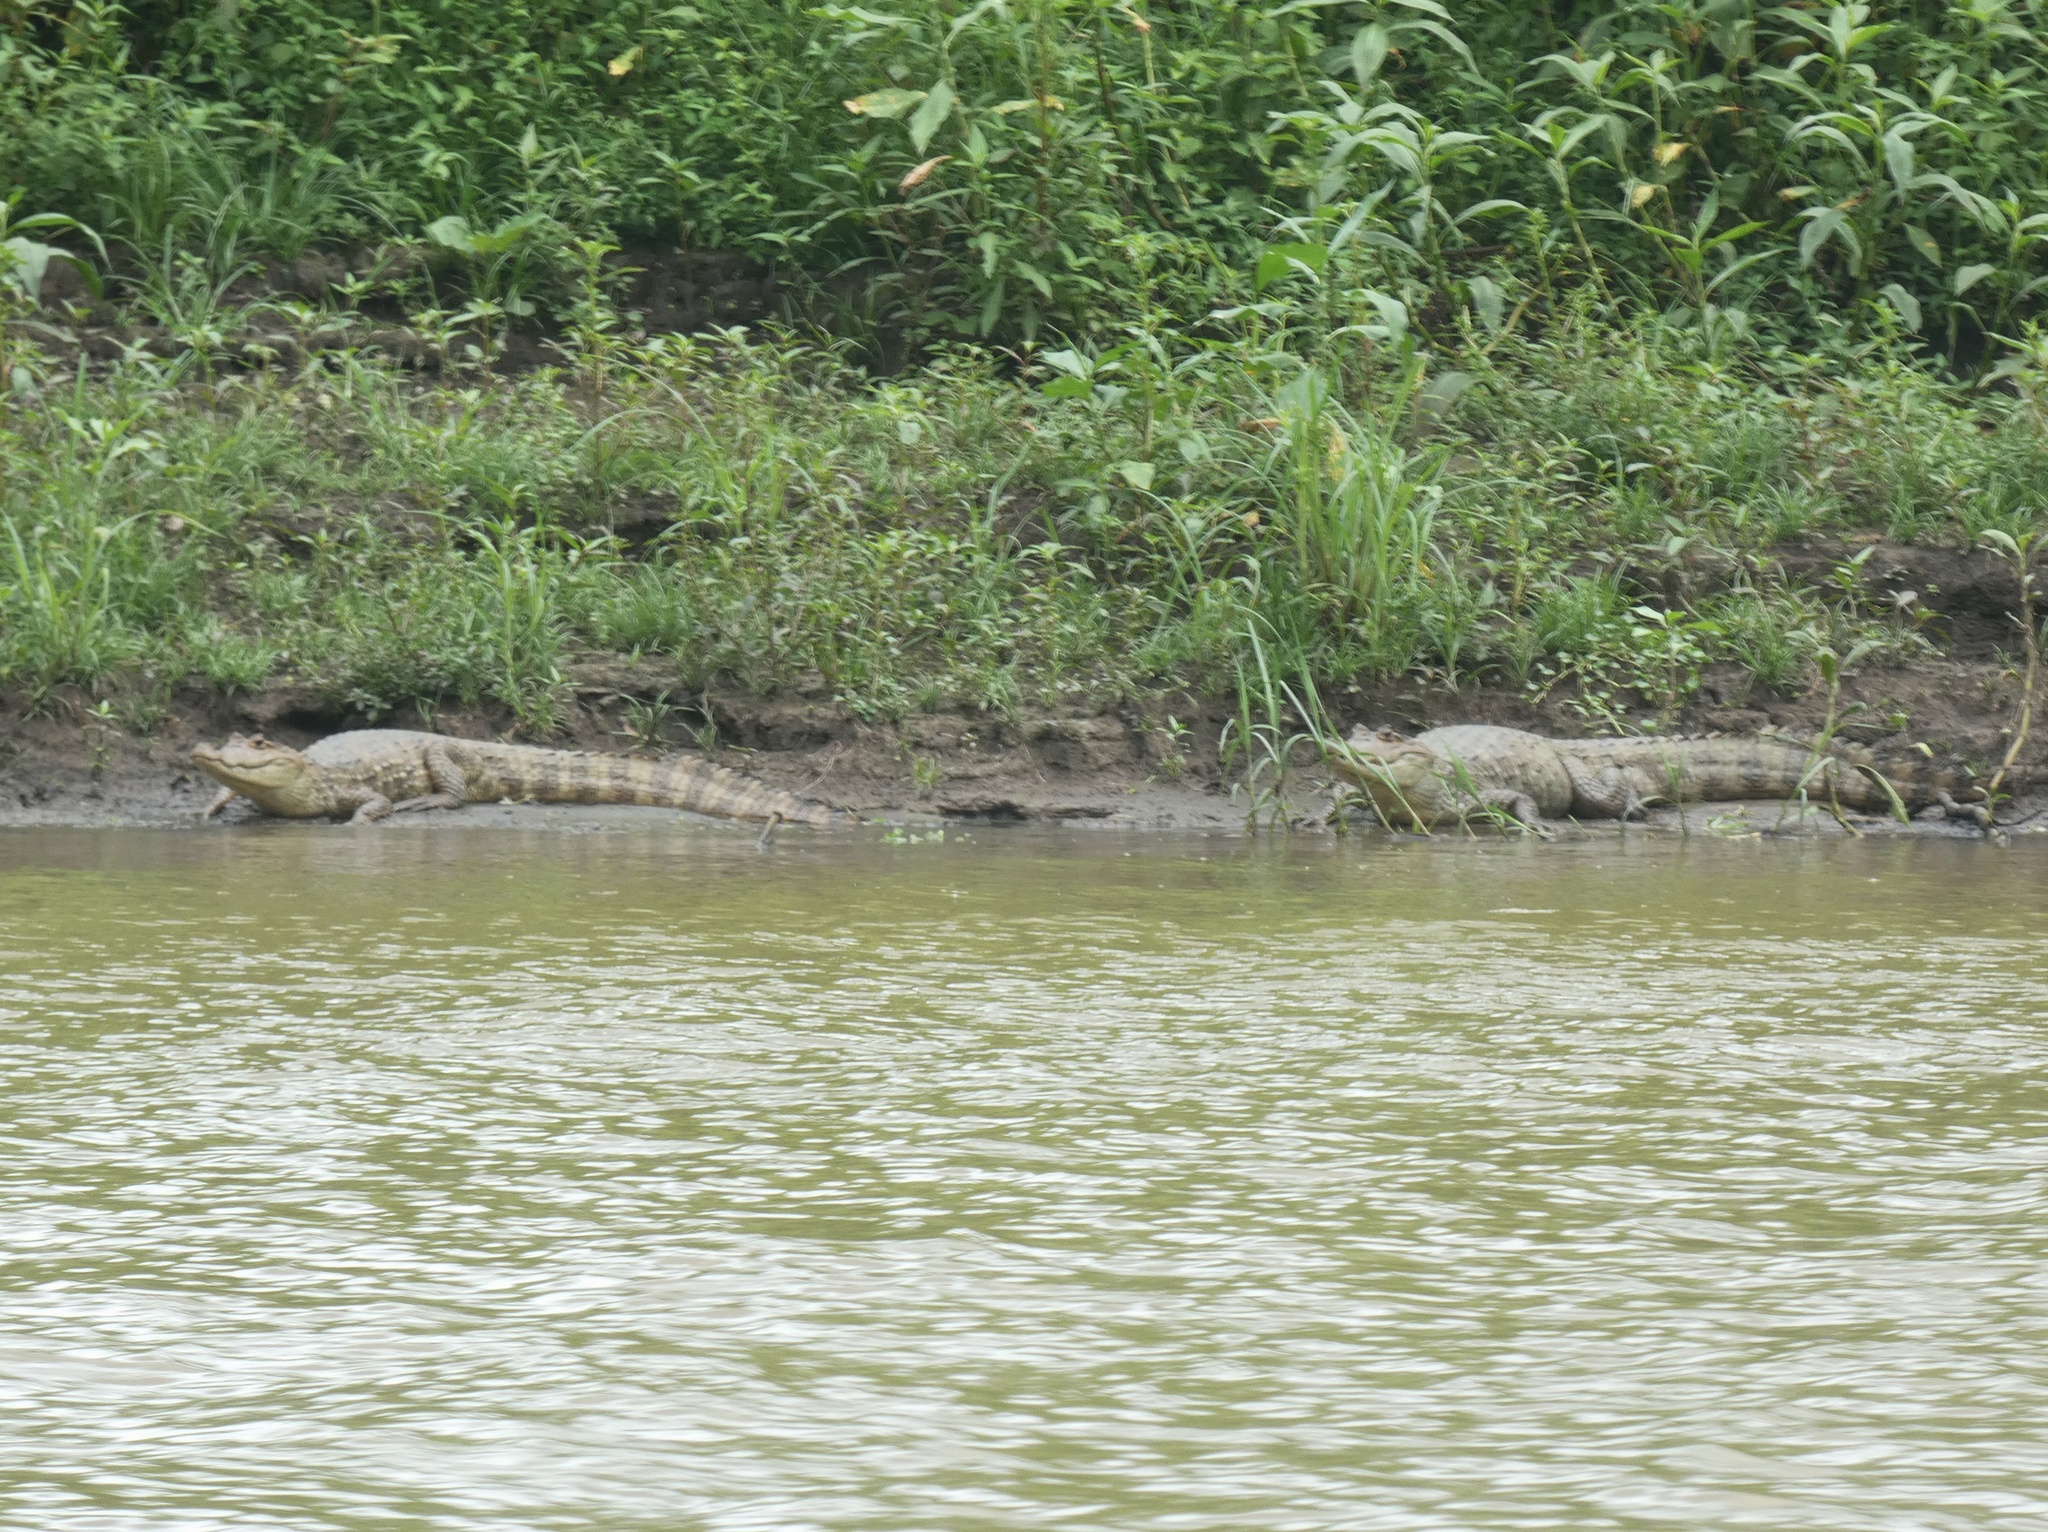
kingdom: Animalia
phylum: Chordata
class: Crocodylia
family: Alligatoridae
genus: Caiman
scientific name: Caiman crocodilus
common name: Common caiman
